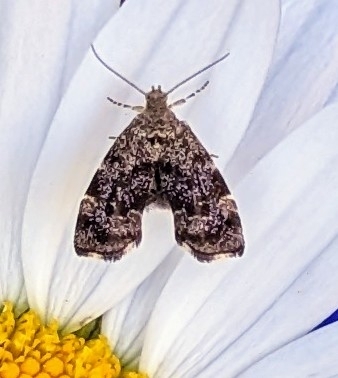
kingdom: Animalia
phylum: Arthropoda
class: Insecta
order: Lepidoptera
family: Choreutidae
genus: Anthophila
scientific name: Anthophila fabriciana
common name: Nettle-tap
